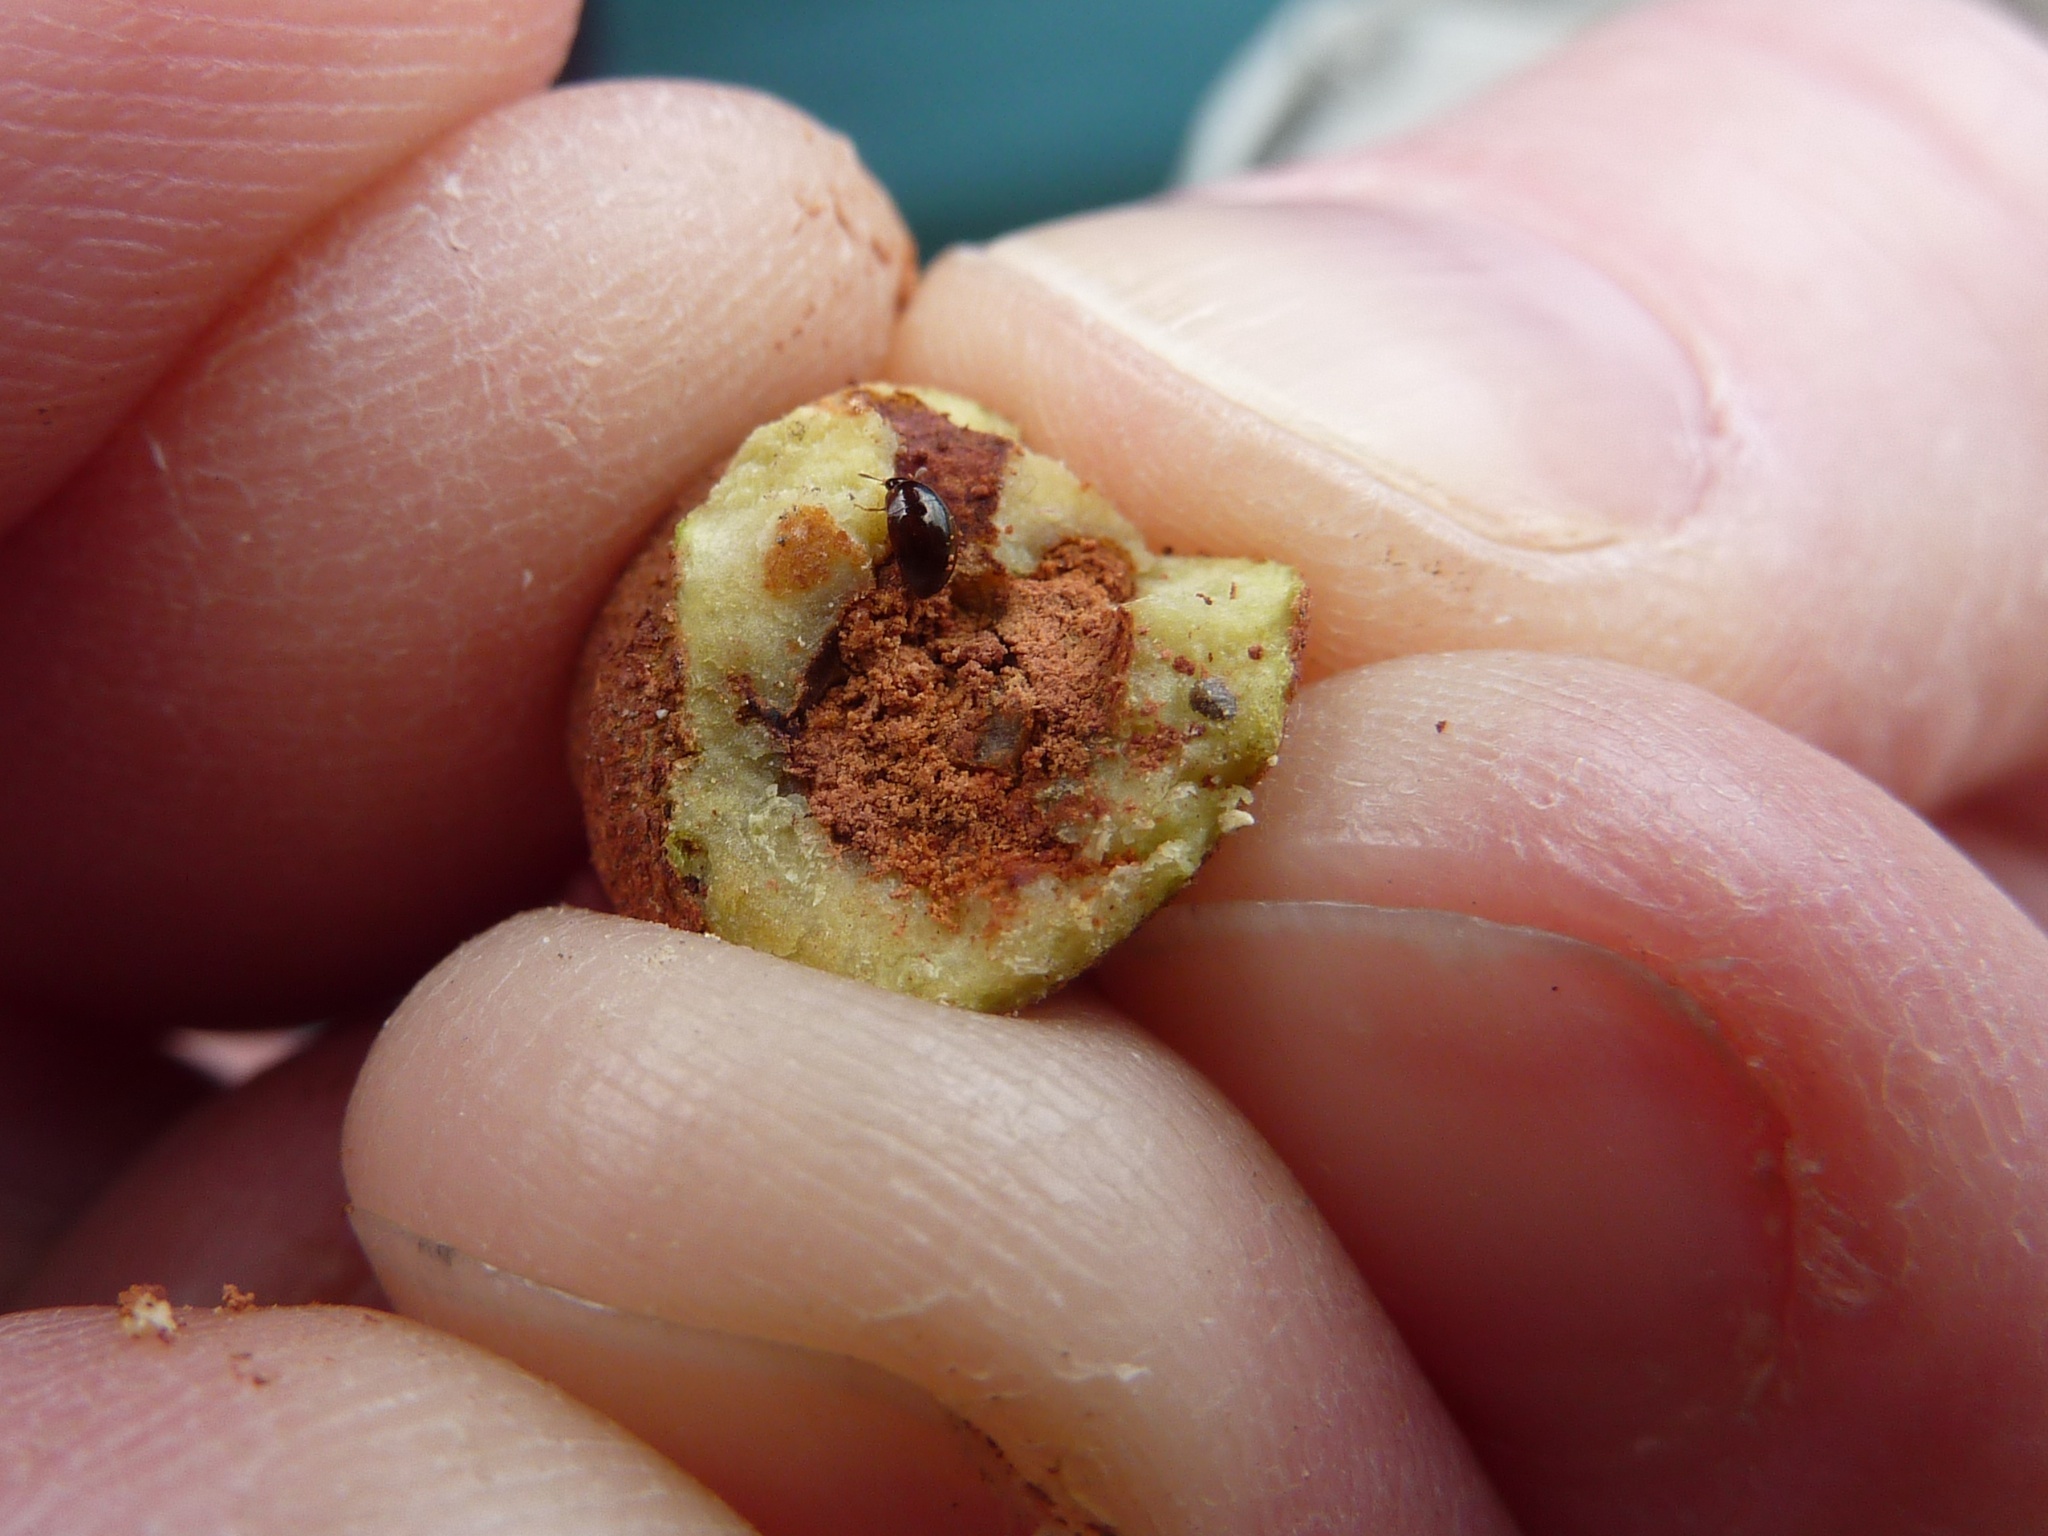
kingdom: Animalia
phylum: Arthropoda
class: Insecta
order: Coleoptera
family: Phalacridae
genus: Phalacrus
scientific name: Phalacrus
